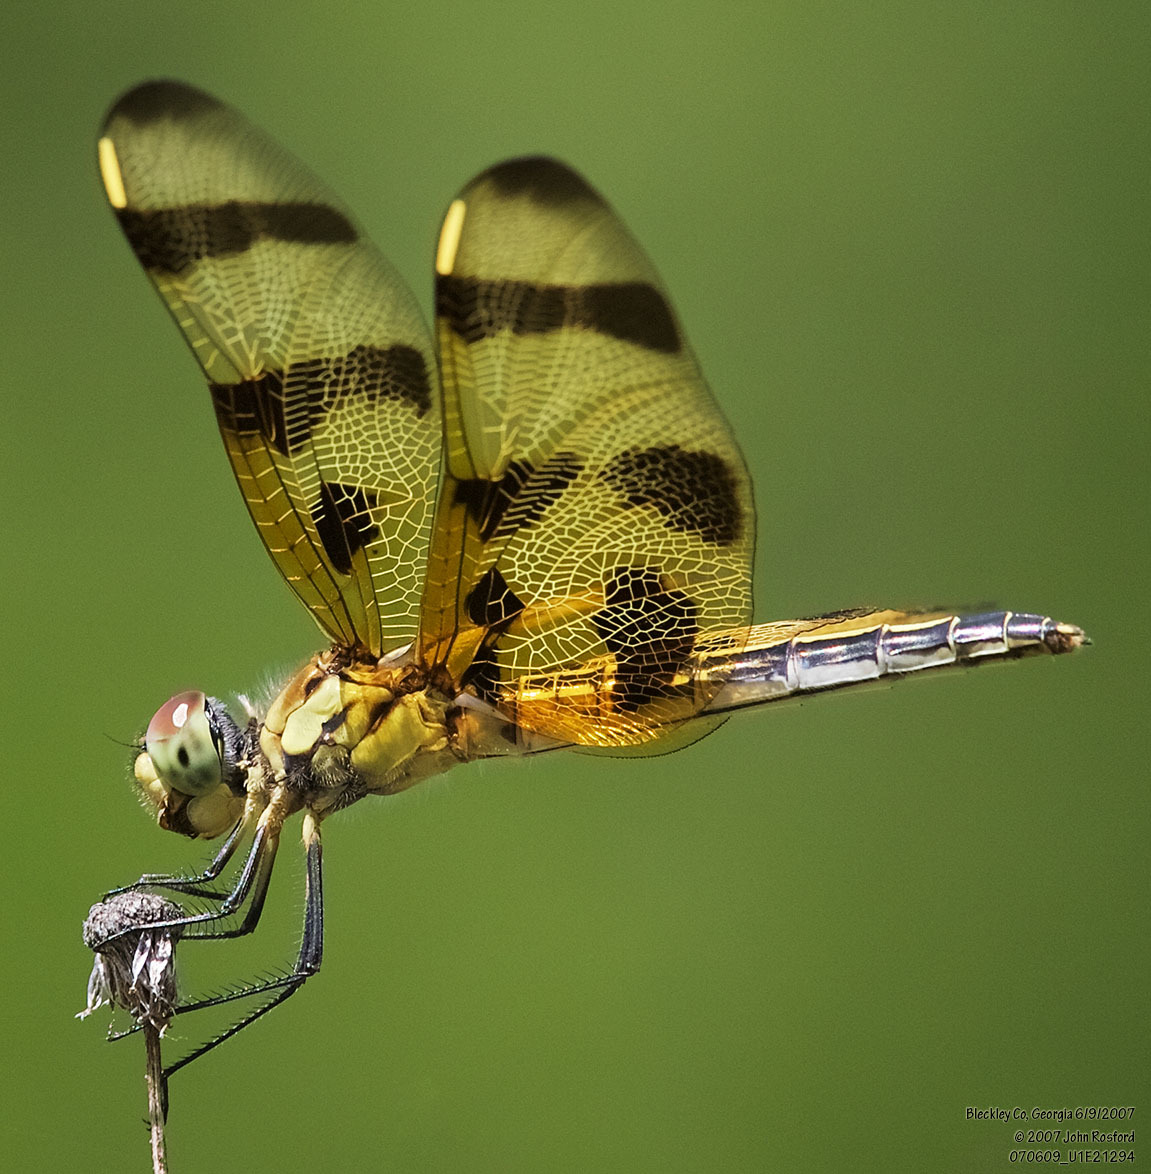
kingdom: Animalia
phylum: Arthropoda
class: Insecta
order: Odonata
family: Libellulidae
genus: Celithemis
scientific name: Celithemis eponina
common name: Halloween pennant
